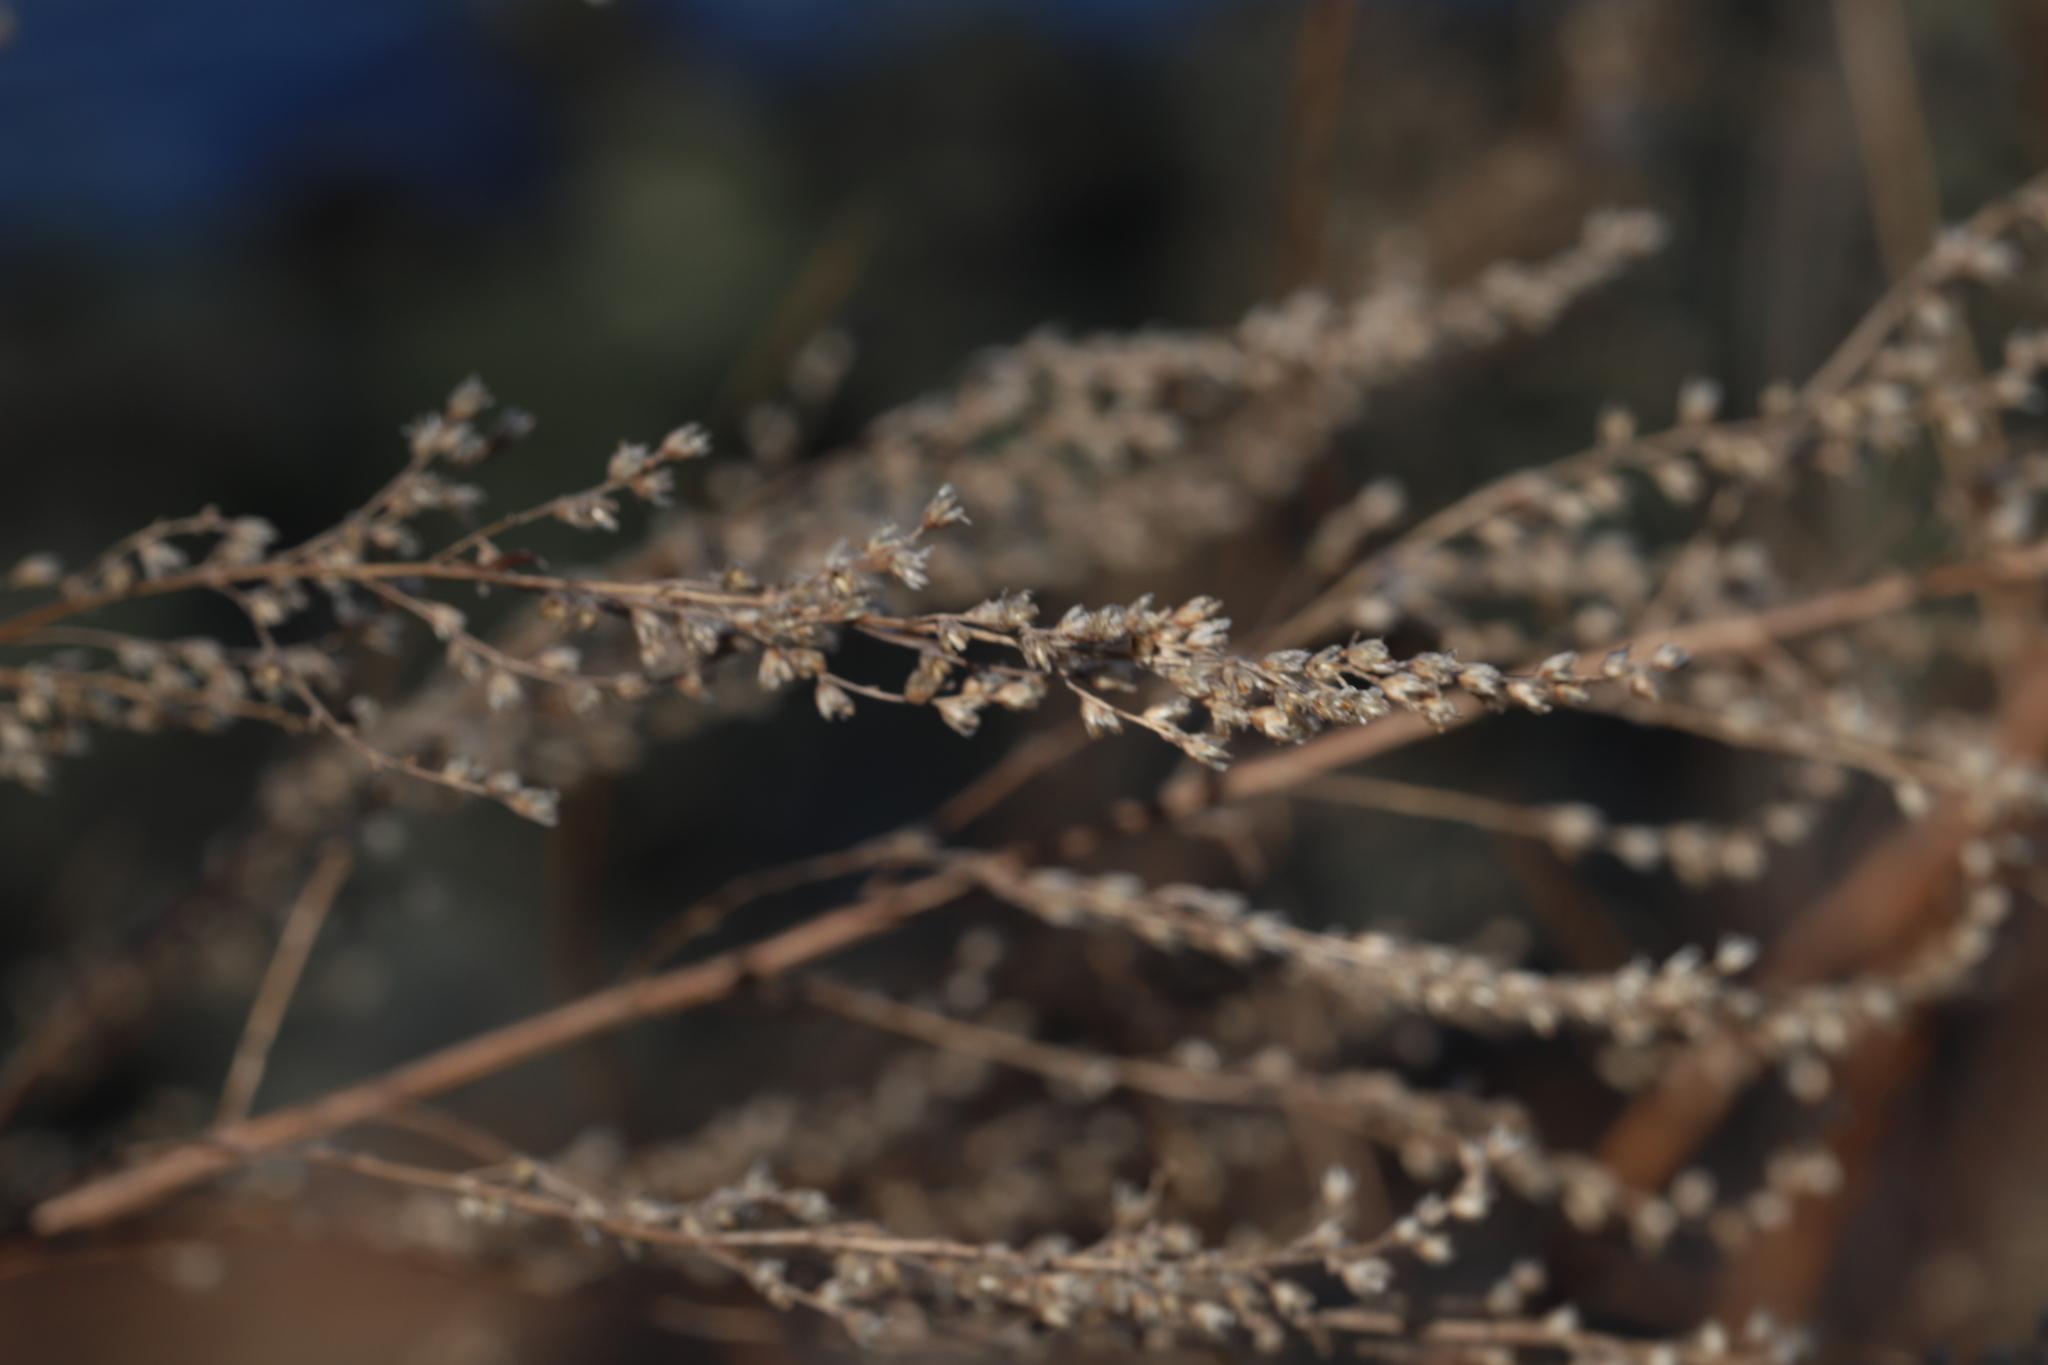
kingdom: Plantae
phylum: Tracheophyta
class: Magnoliopsida
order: Asterales
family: Asteraceae
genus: Artemisia
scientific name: Artemisia vulgaris
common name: Mugwort
